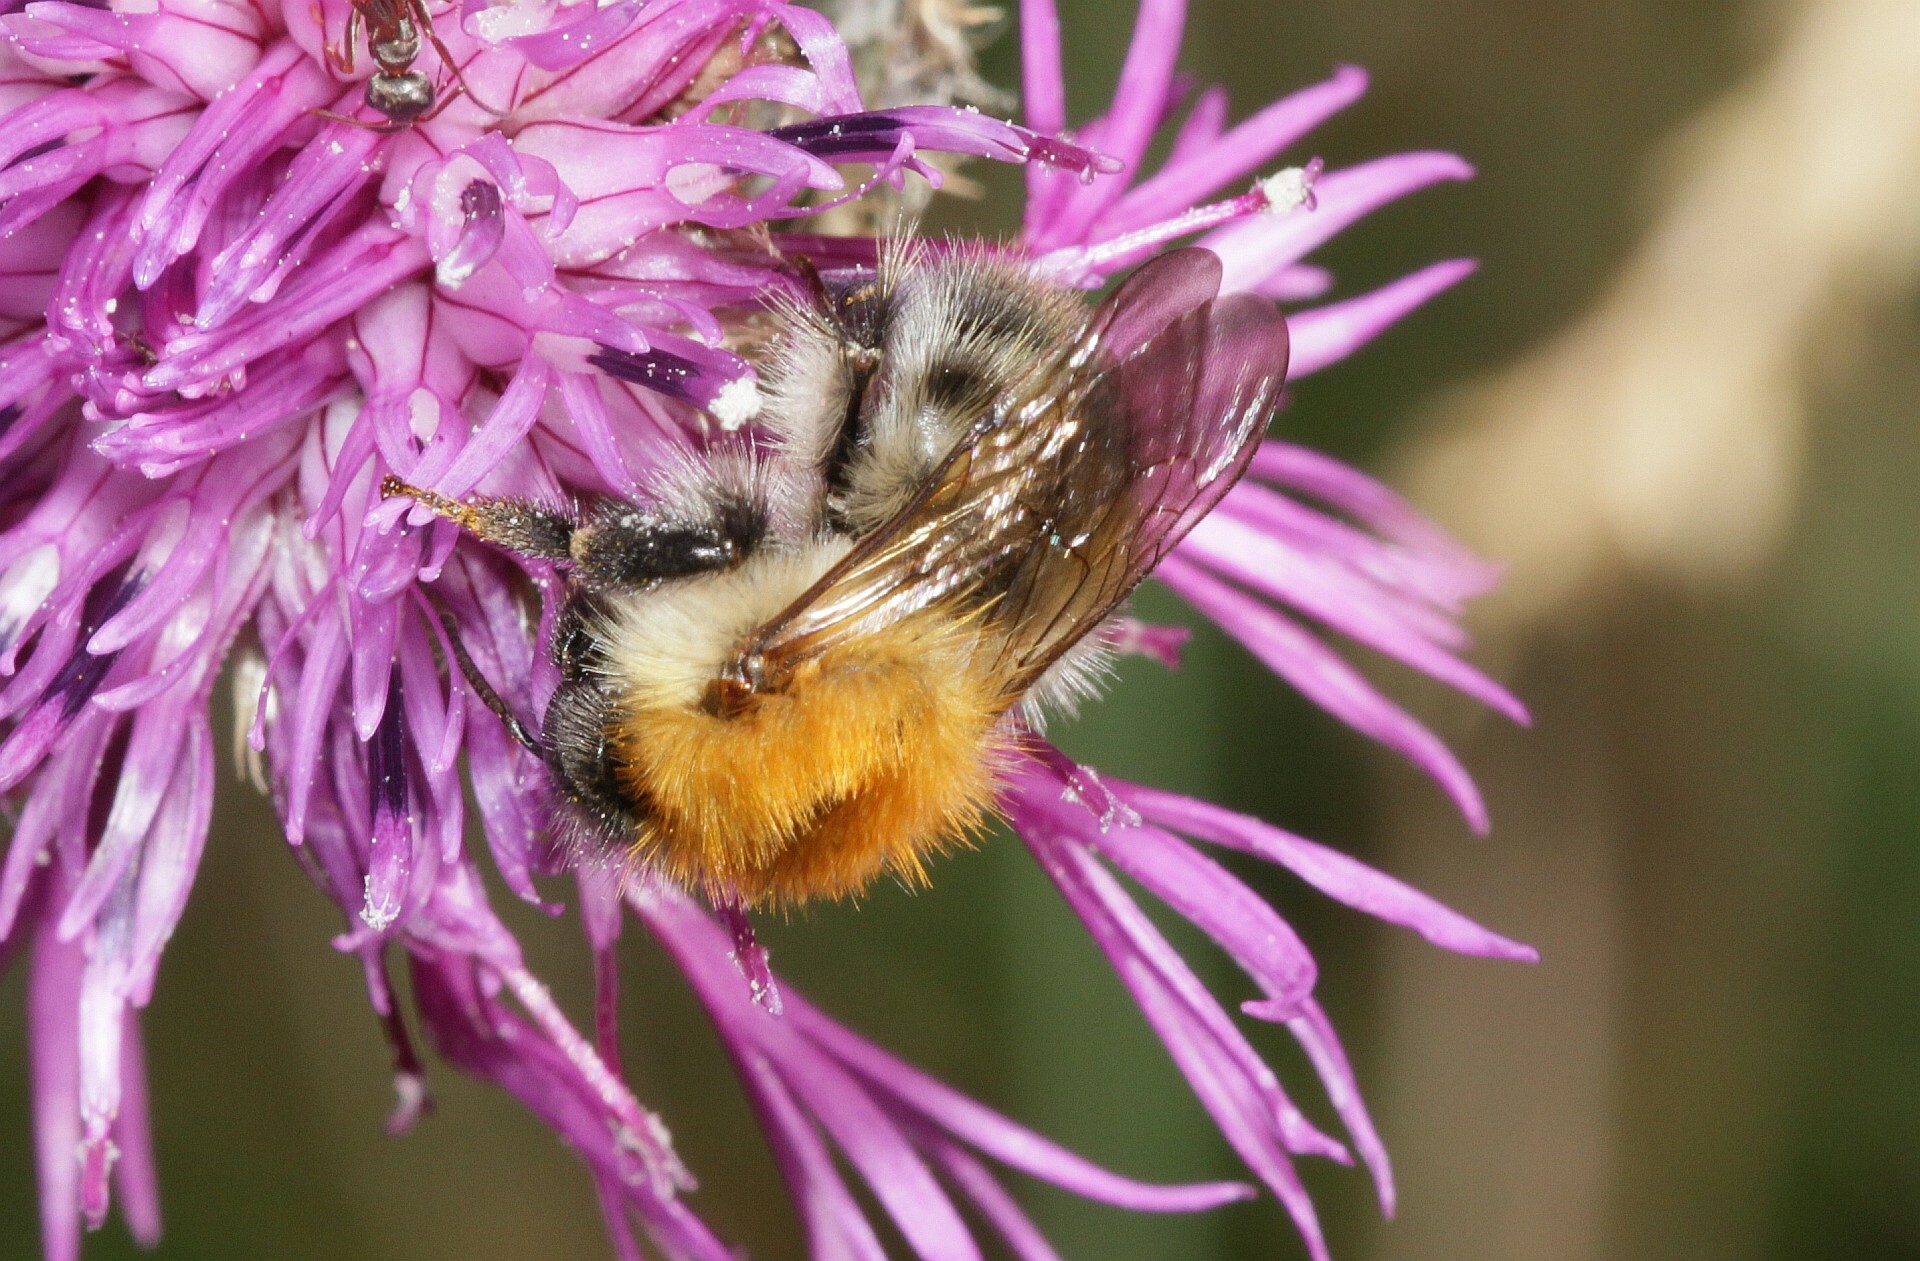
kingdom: Animalia
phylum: Arthropoda
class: Insecta
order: Hymenoptera
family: Apidae
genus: Bombus
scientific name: Bombus pascuorum
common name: Common carder bee
